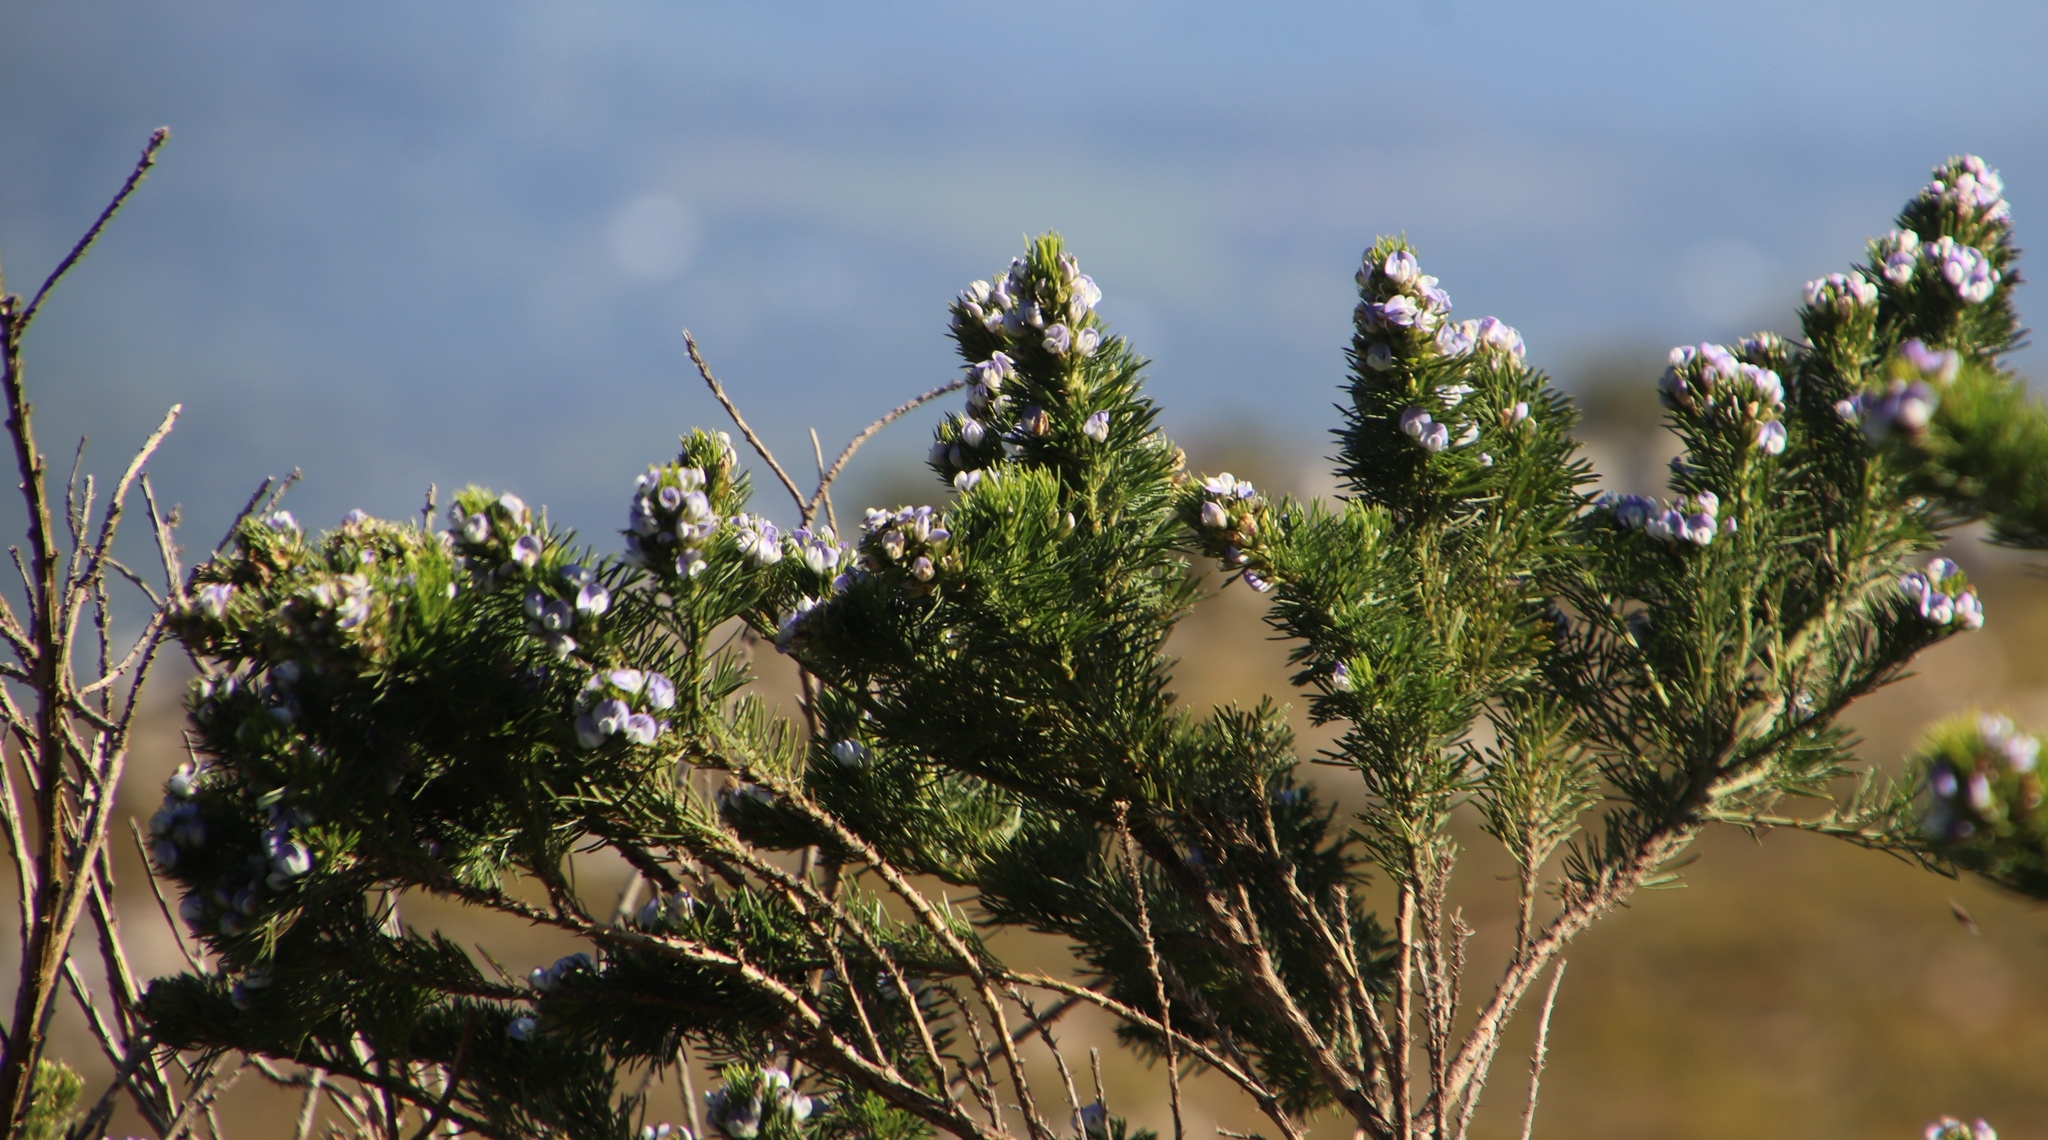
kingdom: Plantae
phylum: Tracheophyta
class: Magnoliopsida
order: Fabales
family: Fabaceae
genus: Psoralea
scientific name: Psoralea pinnata
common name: African scurfpea
